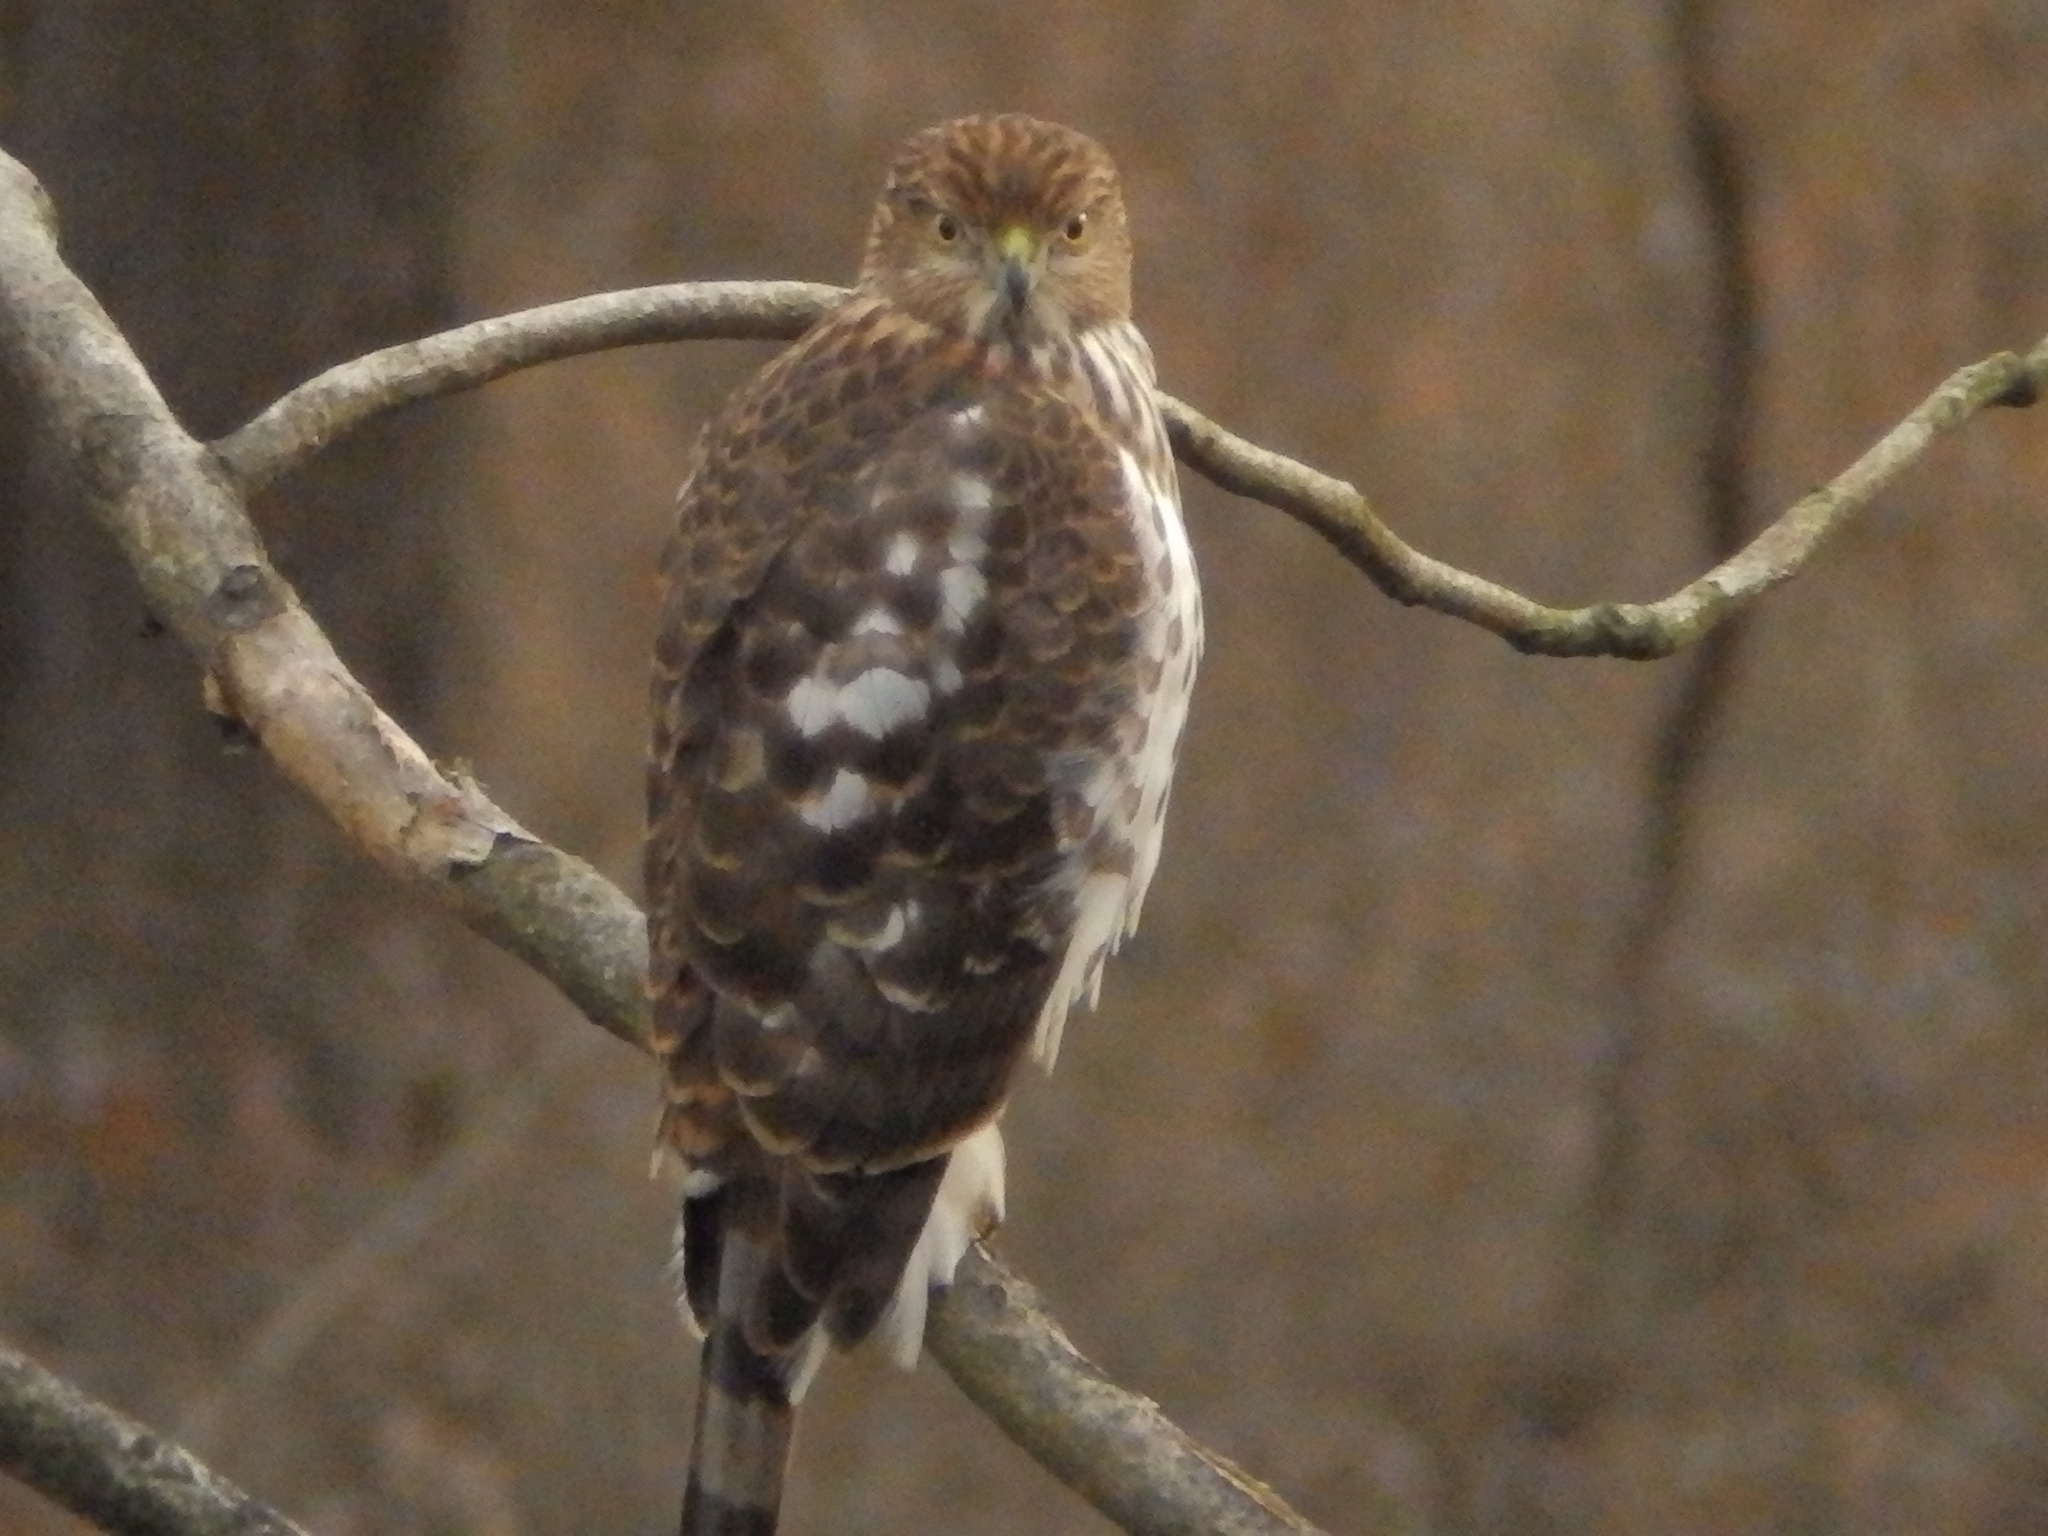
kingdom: Animalia
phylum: Chordata
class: Aves
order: Accipitriformes
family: Accipitridae
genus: Accipiter
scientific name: Accipiter cooperii
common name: Cooper's hawk
